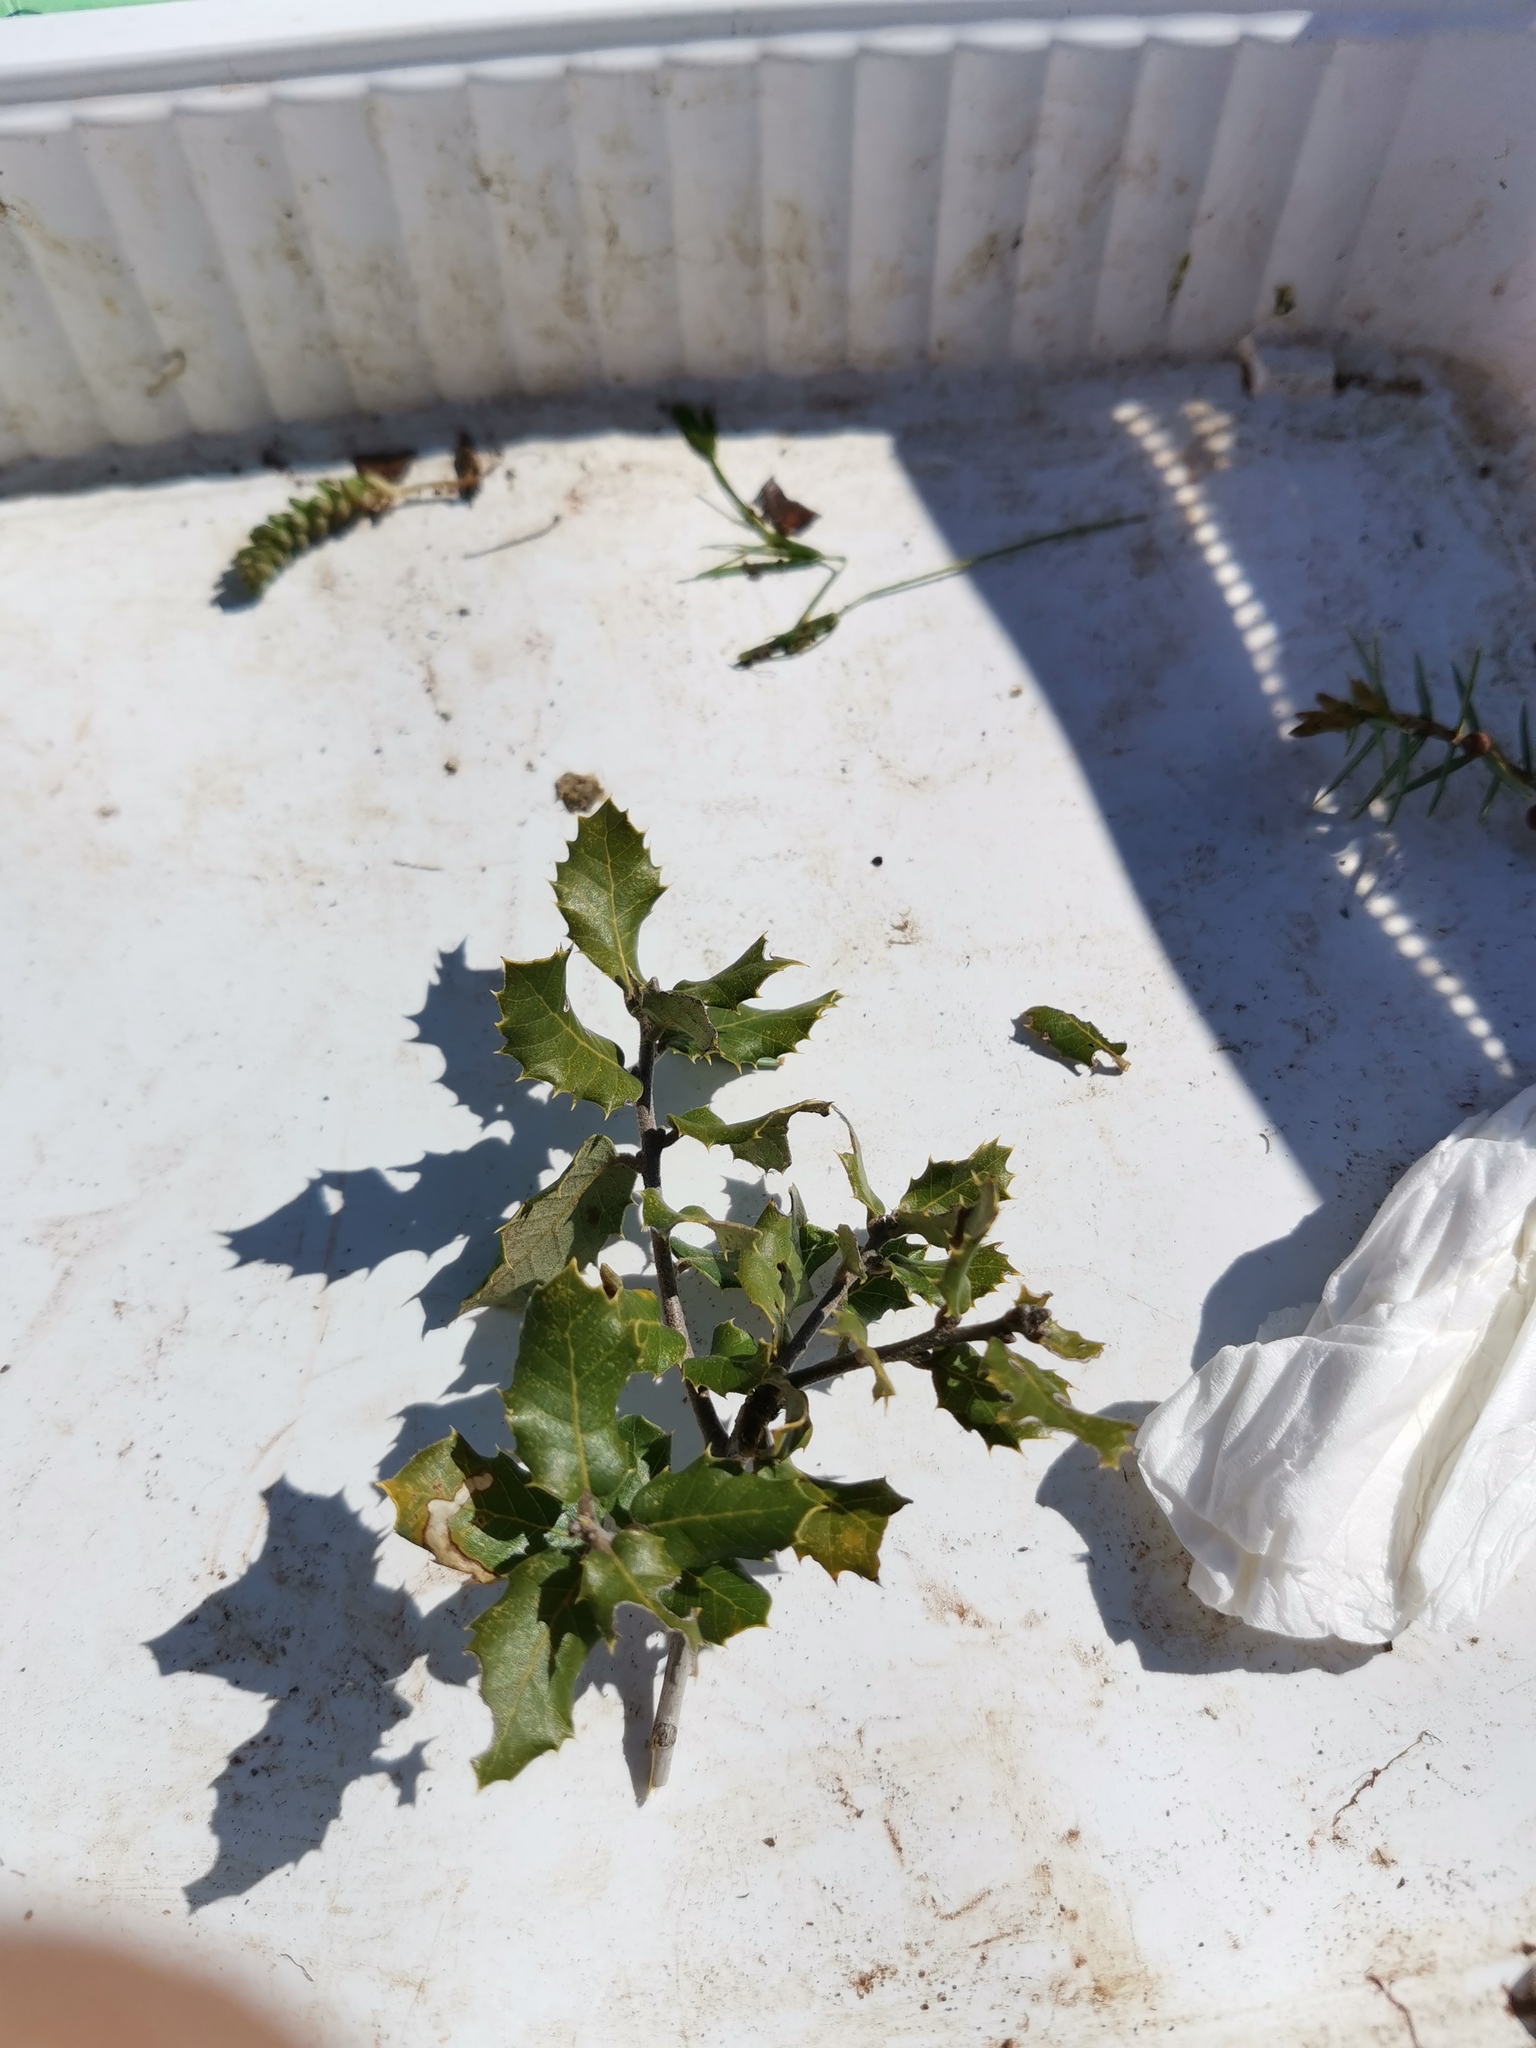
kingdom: Plantae
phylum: Tracheophyta
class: Magnoliopsida
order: Fagales
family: Fagaceae
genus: Quercus
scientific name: Quercus ilex
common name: Evergreen oak
